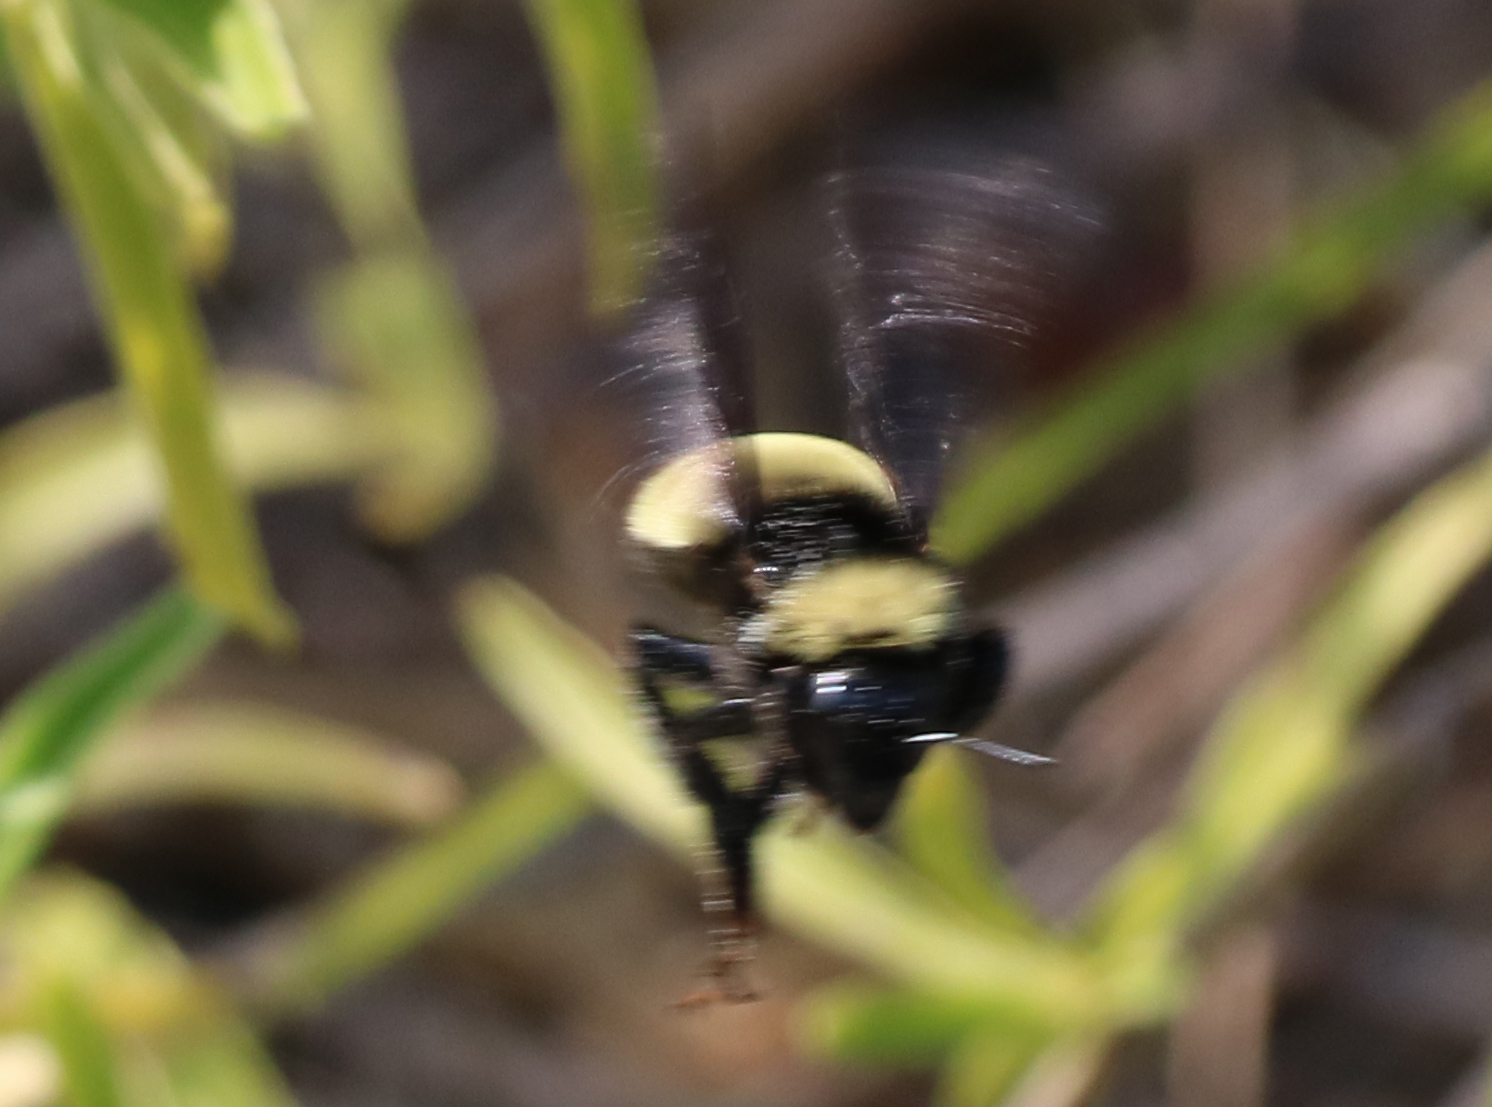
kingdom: Animalia
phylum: Arthropoda
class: Insecta
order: Hymenoptera
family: Apidae
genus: Bombus
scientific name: Bombus pensylvanicus
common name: Bumble bee
